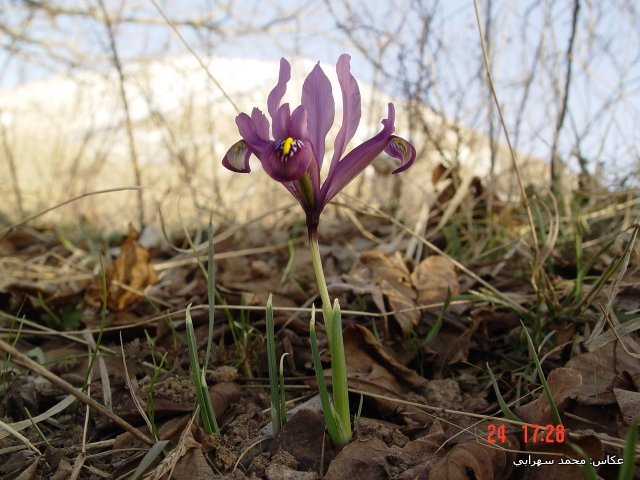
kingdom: Plantae
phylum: Tracheophyta
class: Liliopsida
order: Asparagales
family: Iridaceae
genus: Iris
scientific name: Iris reticulata
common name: Netted iris
